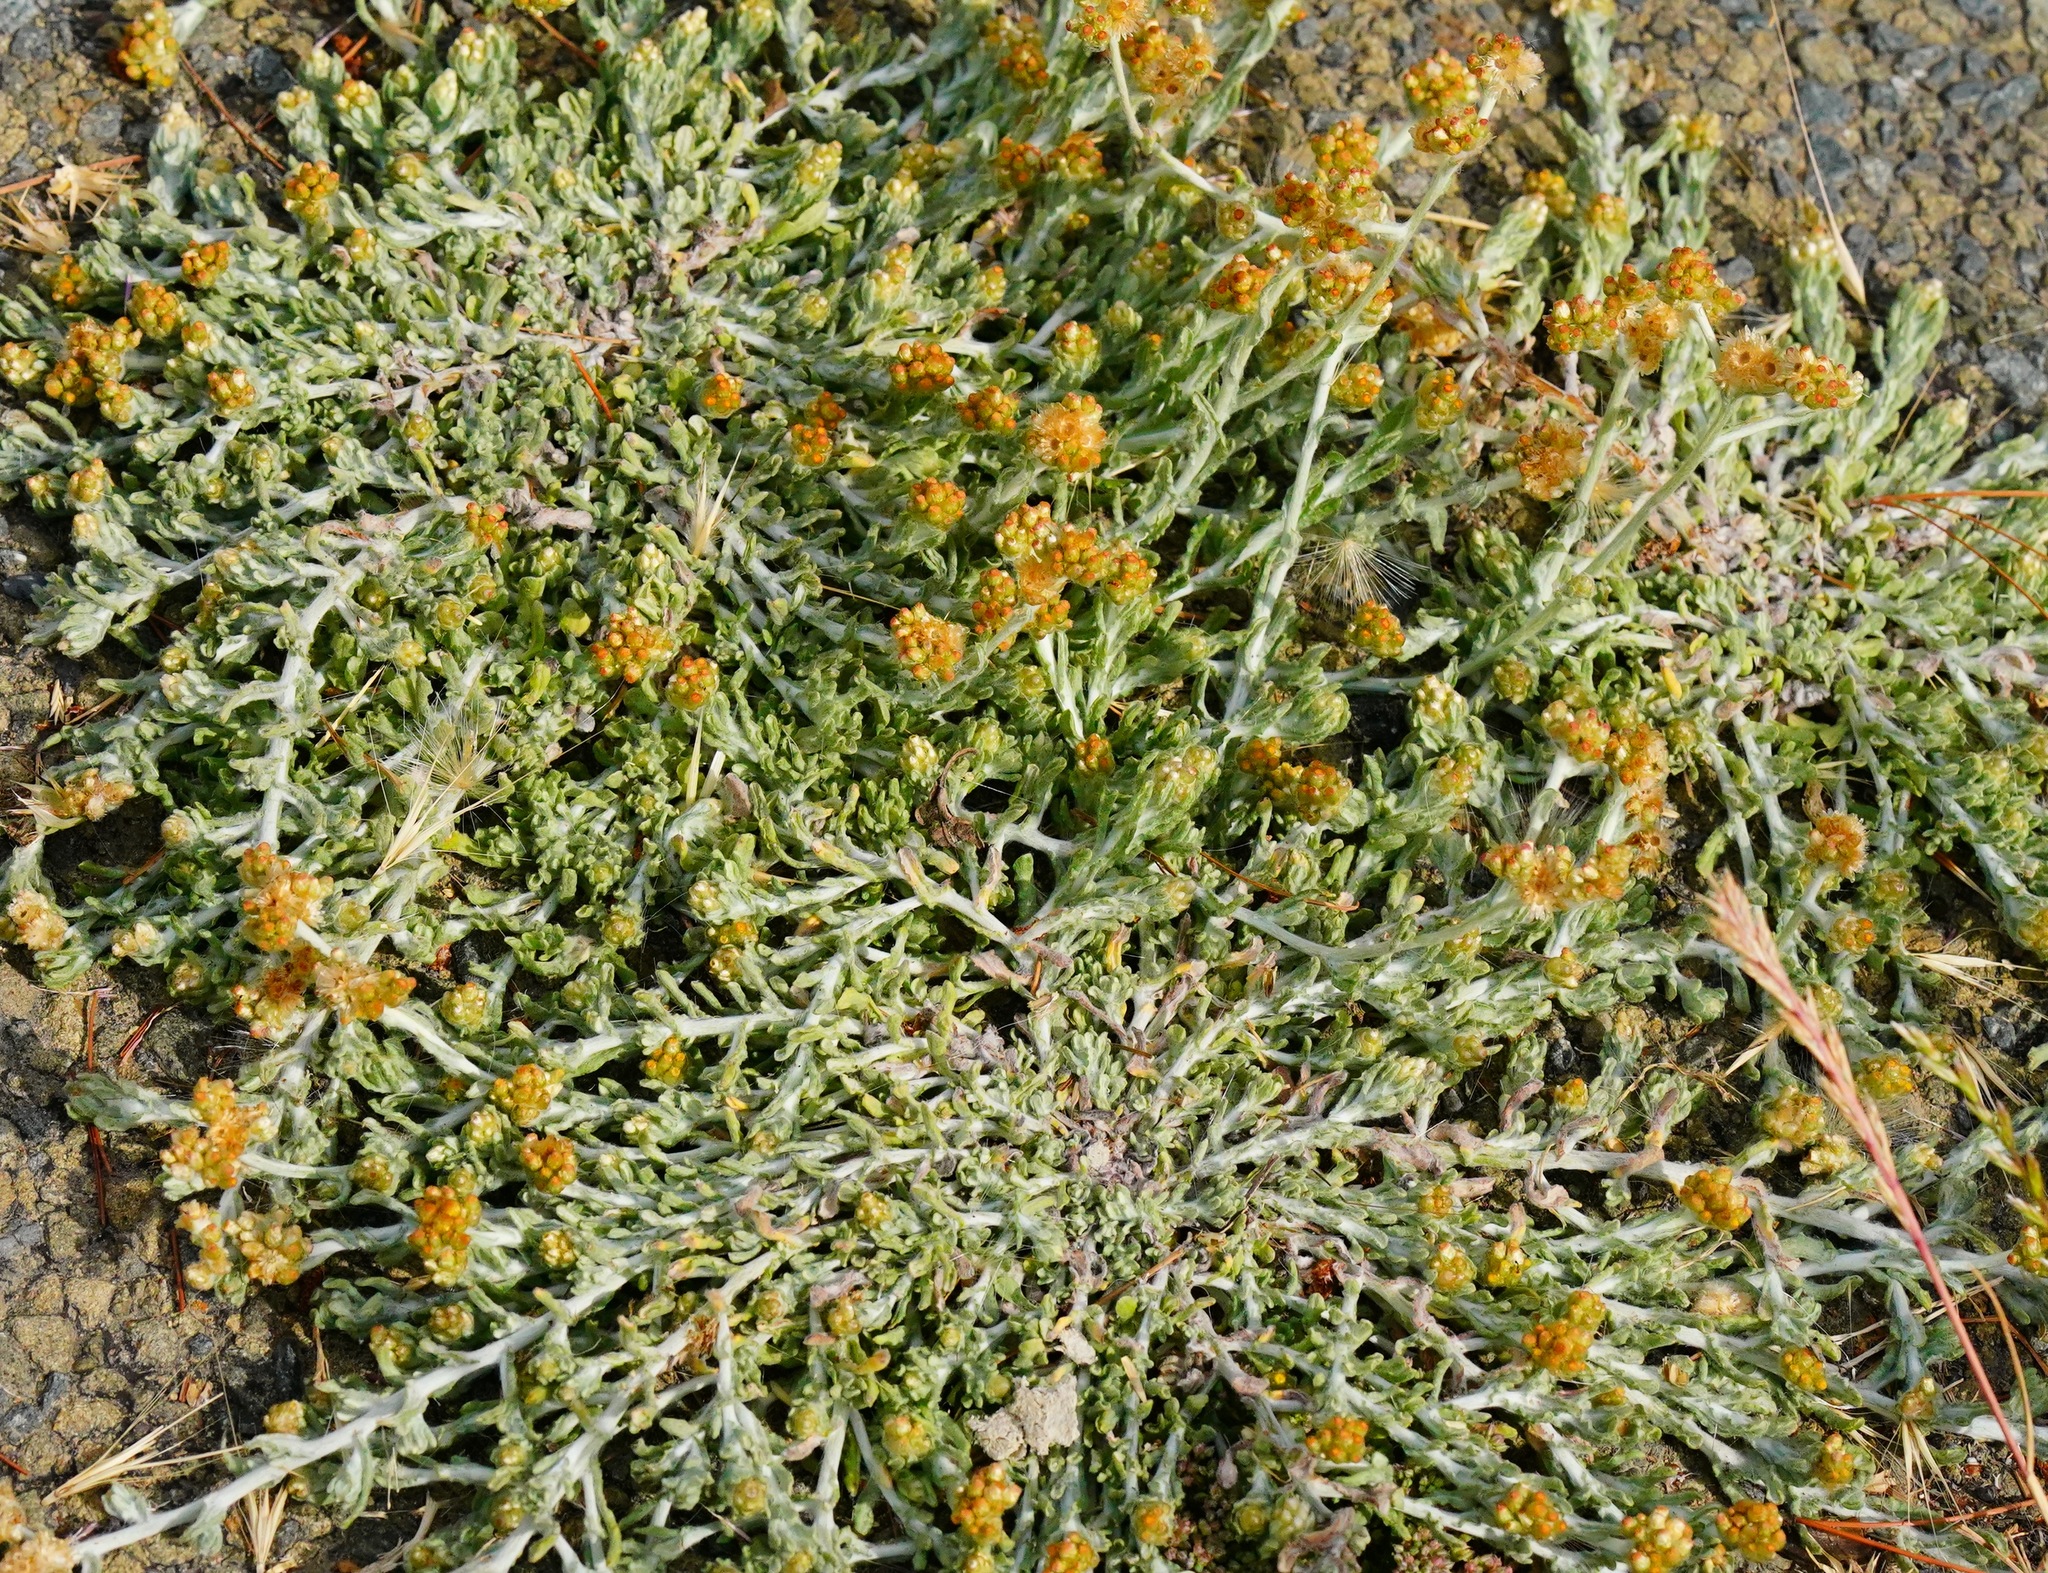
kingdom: Plantae
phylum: Tracheophyta
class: Magnoliopsida
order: Asterales
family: Asteraceae
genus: Helichrysum
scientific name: Helichrysum luteoalbum
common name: Daisy
